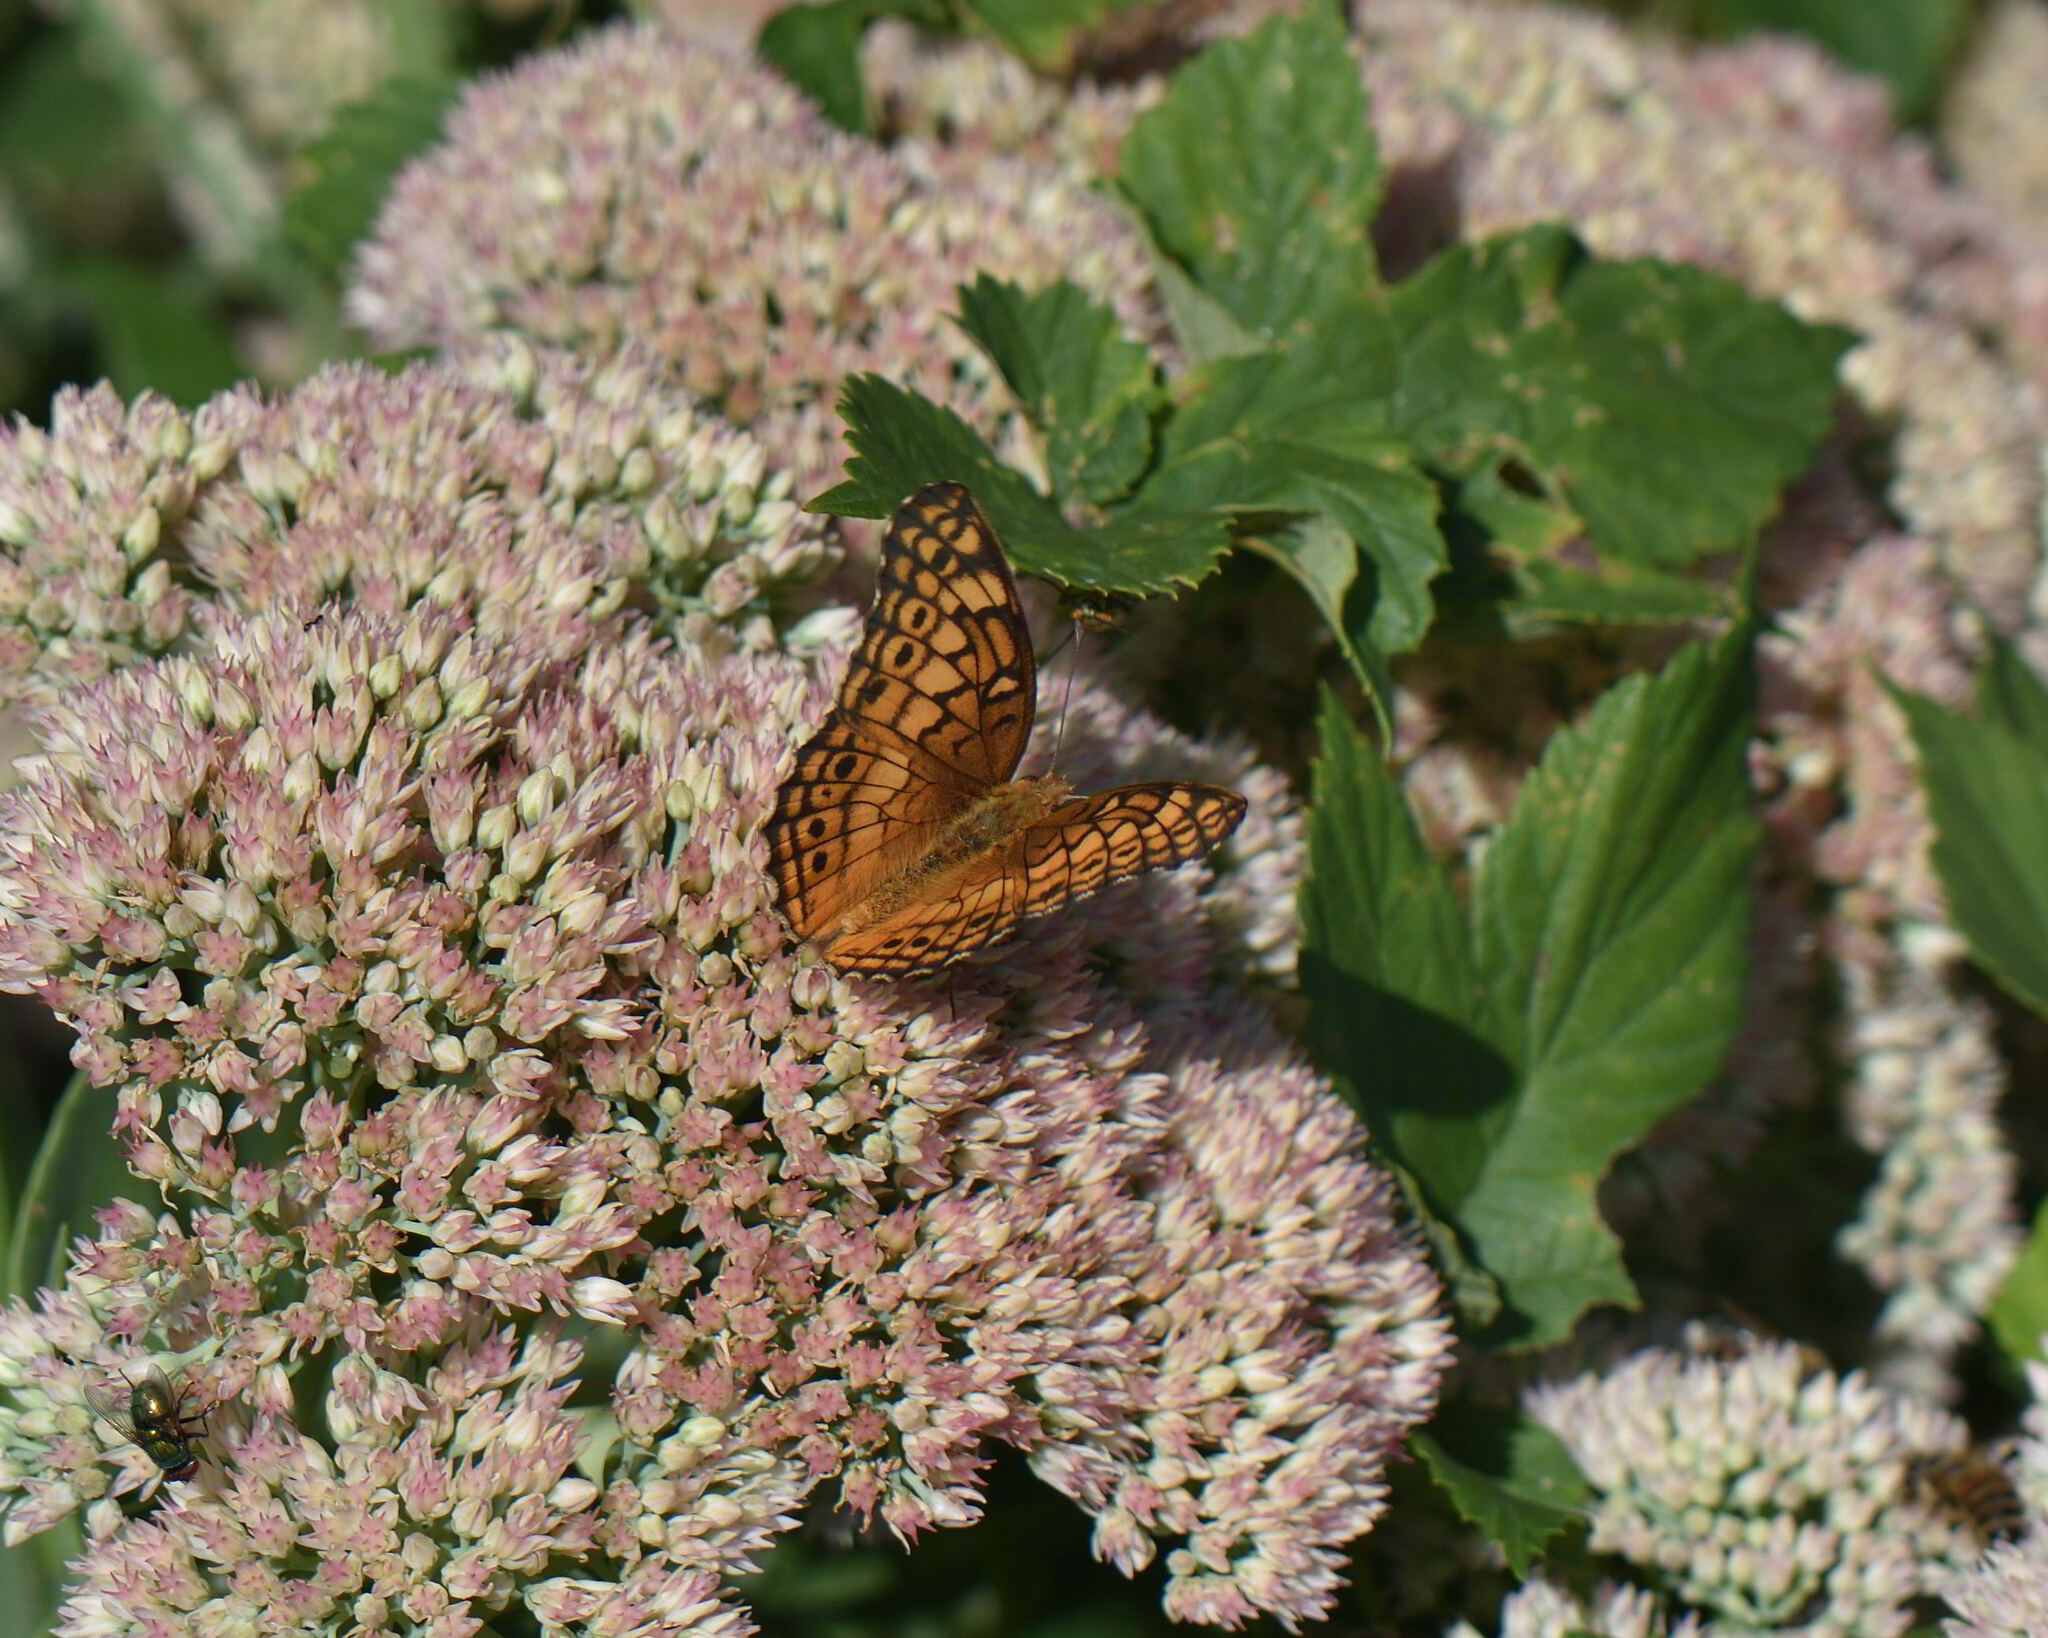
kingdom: Animalia
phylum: Arthropoda
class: Insecta
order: Lepidoptera
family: Nymphalidae
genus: Euptoieta
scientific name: Euptoieta claudia
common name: Variegated fritillary
